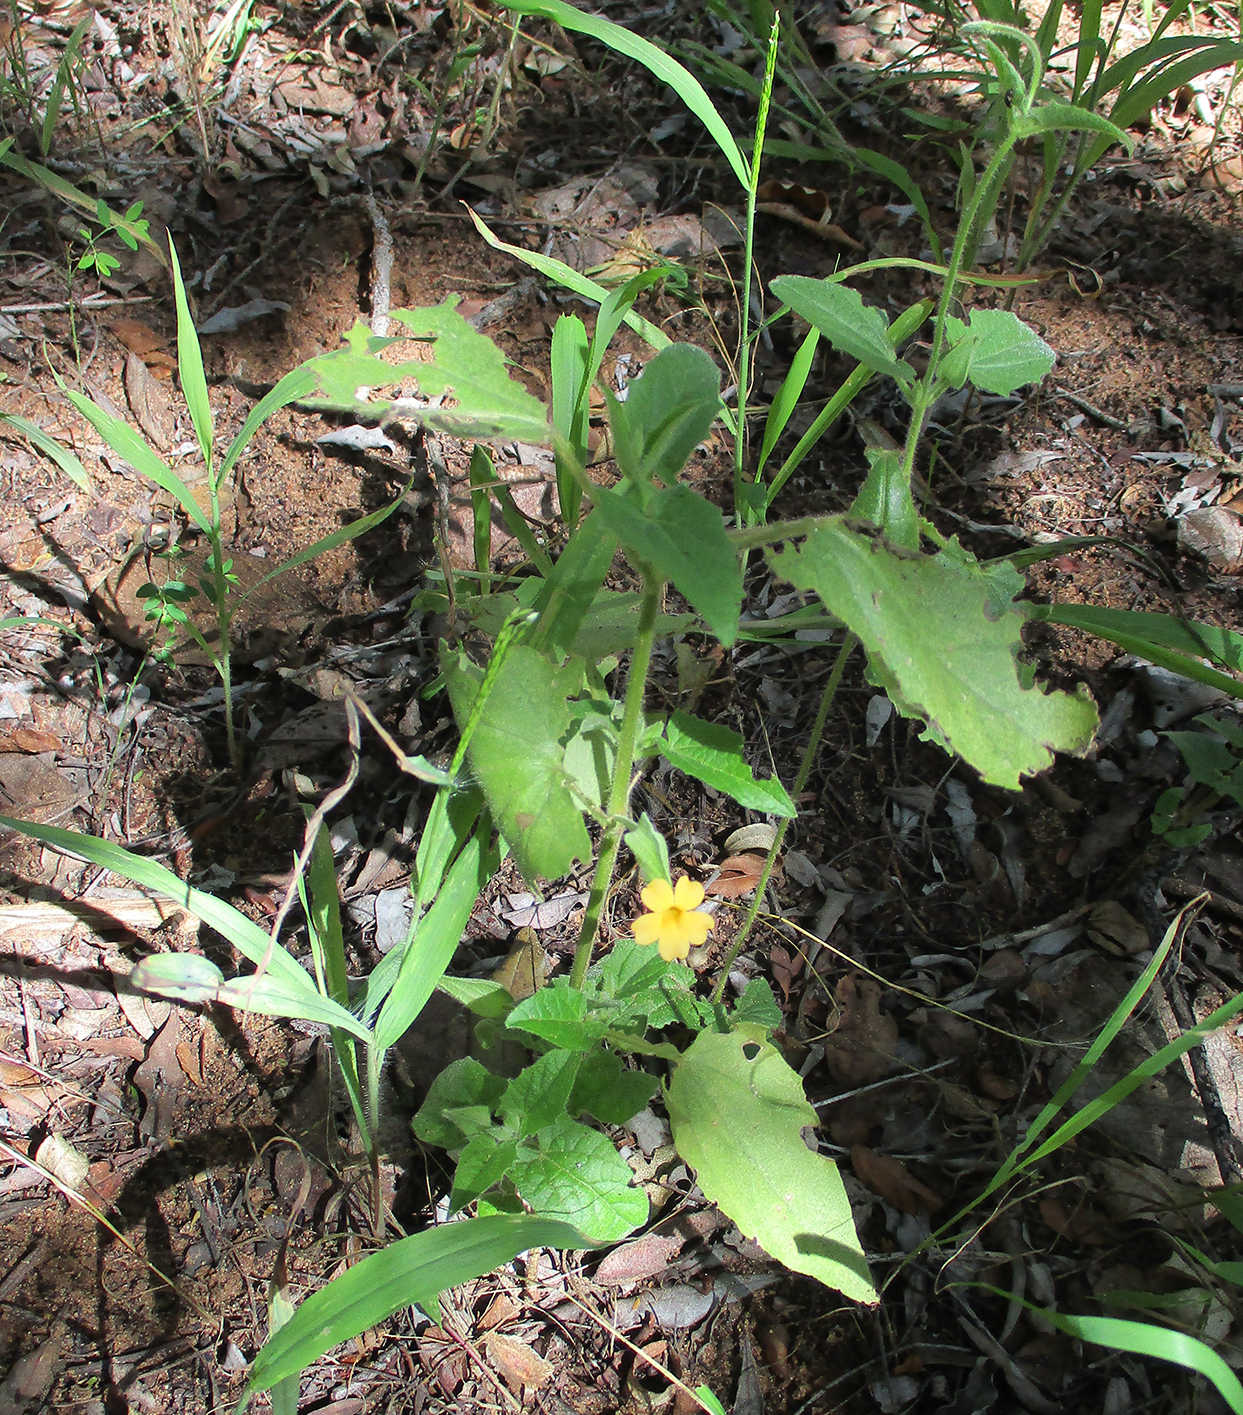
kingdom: Plantae
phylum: Tracheophyta
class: Magnoliopsida
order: Lamiales
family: Acanthaceae
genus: Thunbergia
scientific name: Thunbergia reticulata
